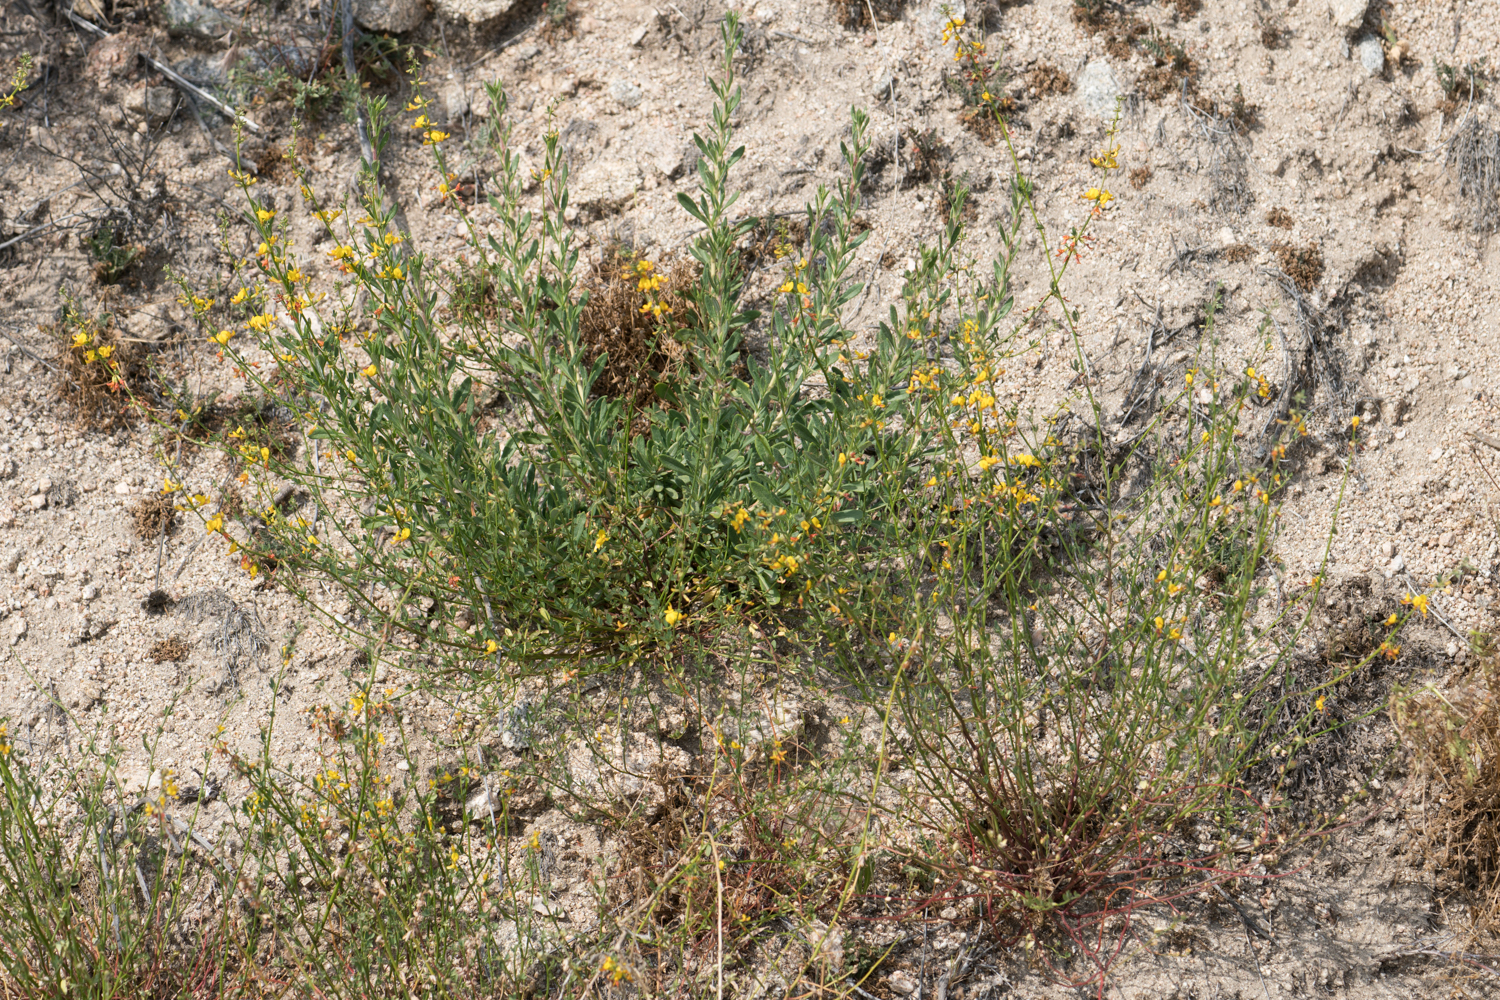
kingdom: Plantae
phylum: Tracheophyta
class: Magnoliopsida
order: Fabales
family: Fabaceae
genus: Acmispon
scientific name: Acmispon glaber
